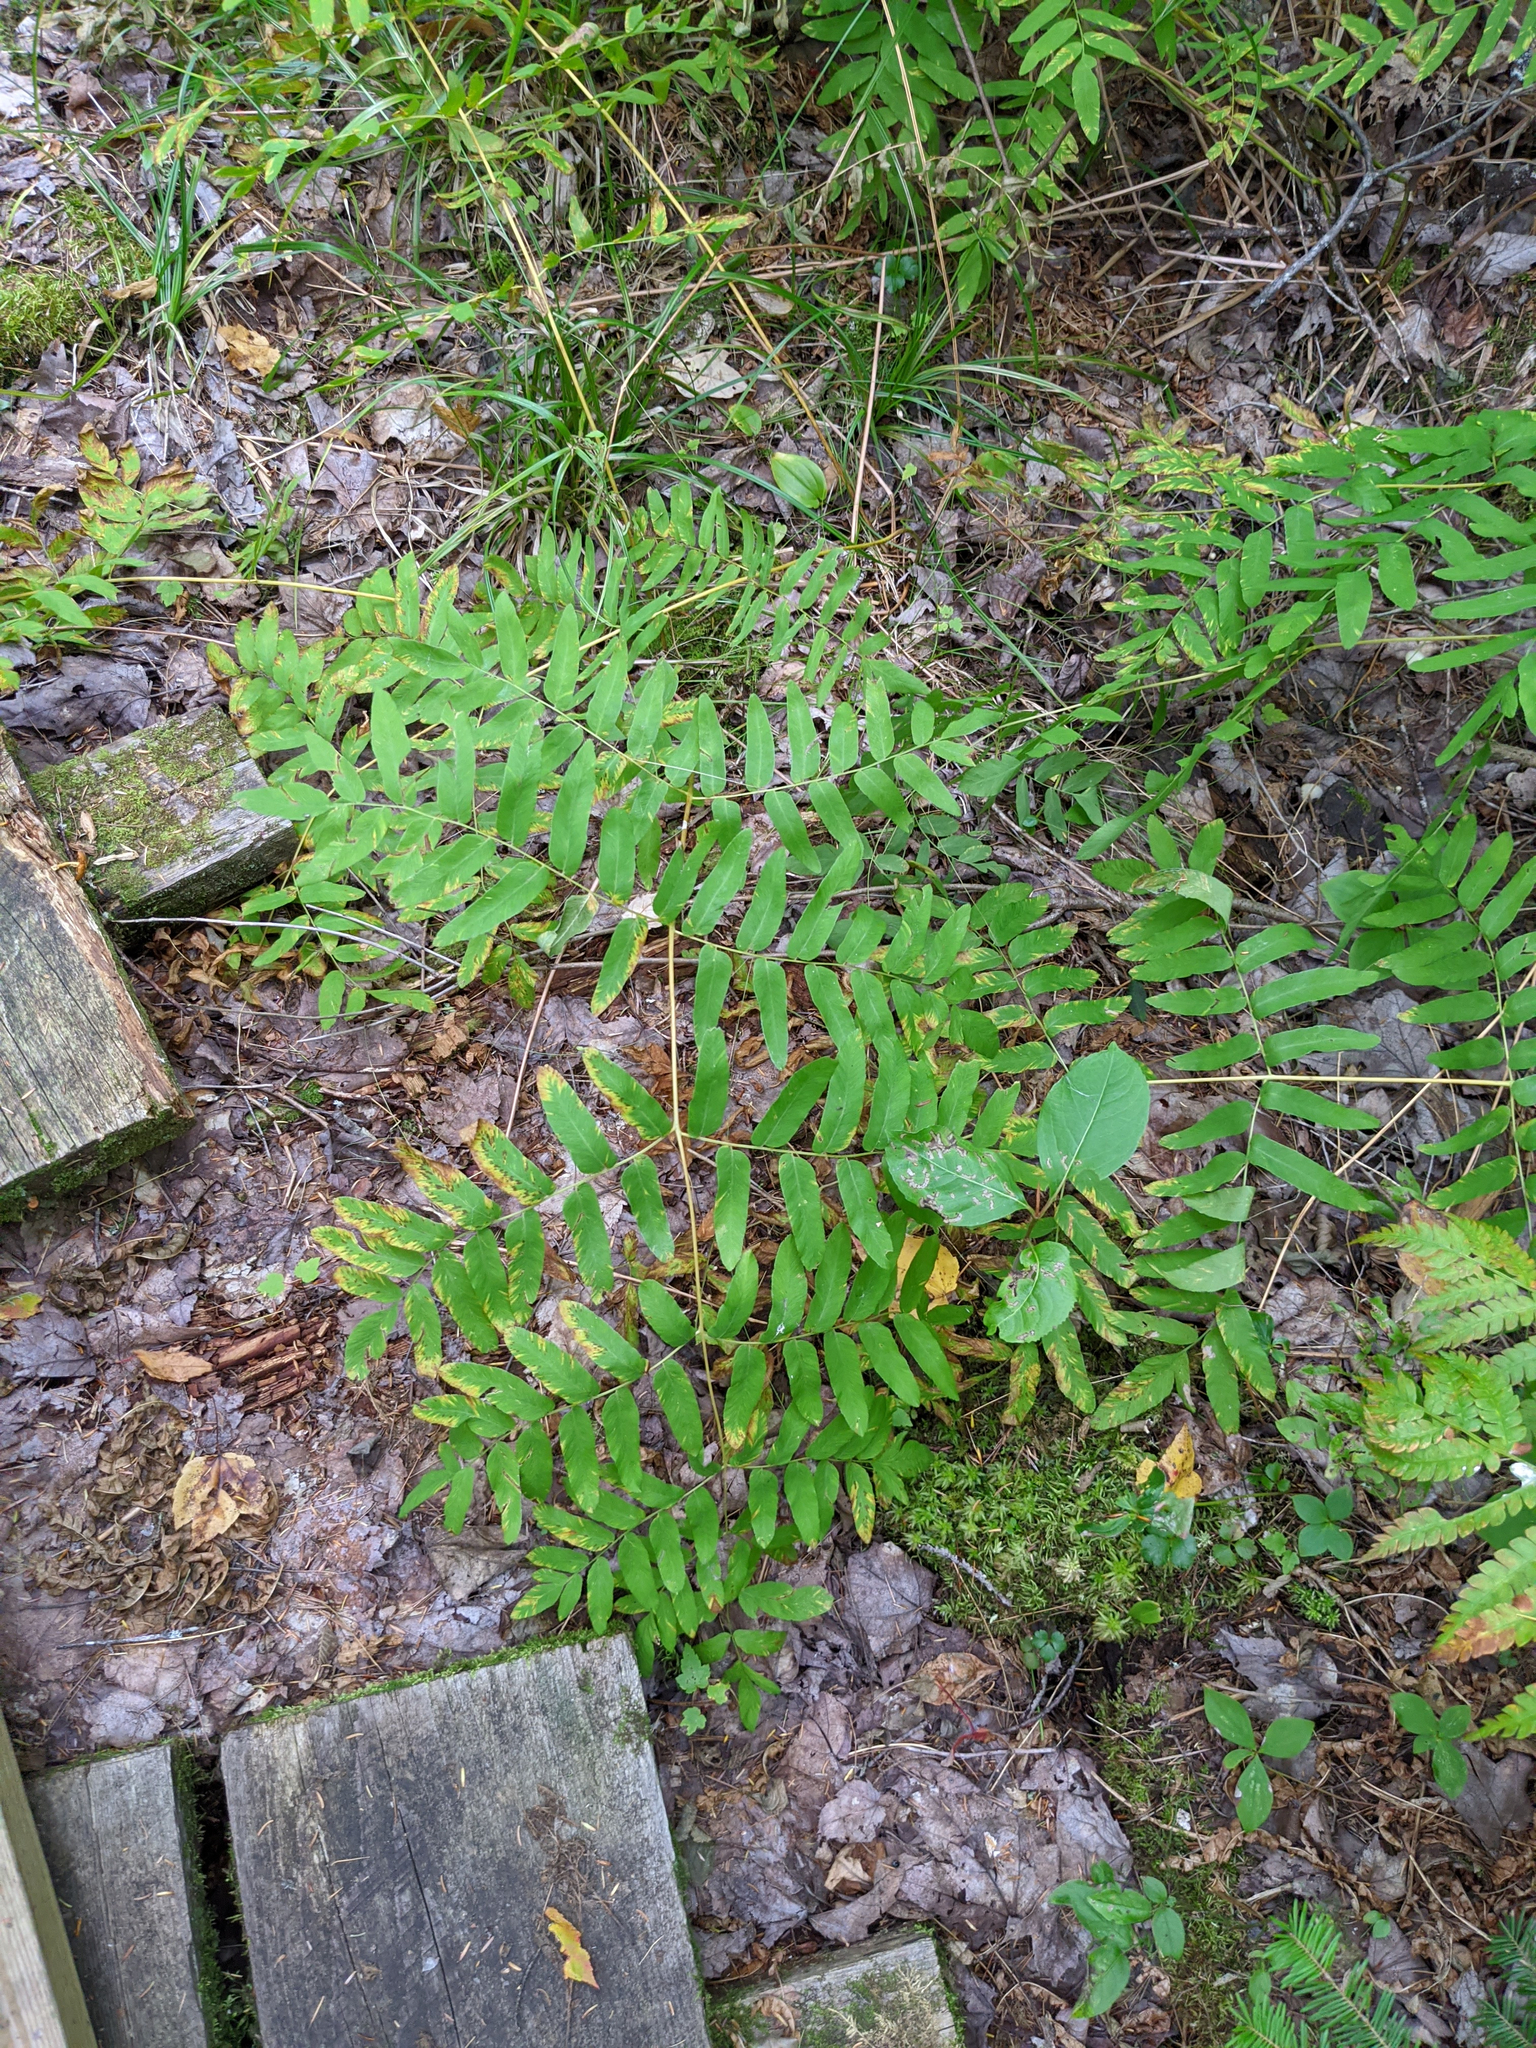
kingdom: Plantae
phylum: Tracheophyta
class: Polypodiopsida
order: Osmundales
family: Osmundaceae
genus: Osmunda
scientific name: Osmunda spectabilis
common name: American royal fern
